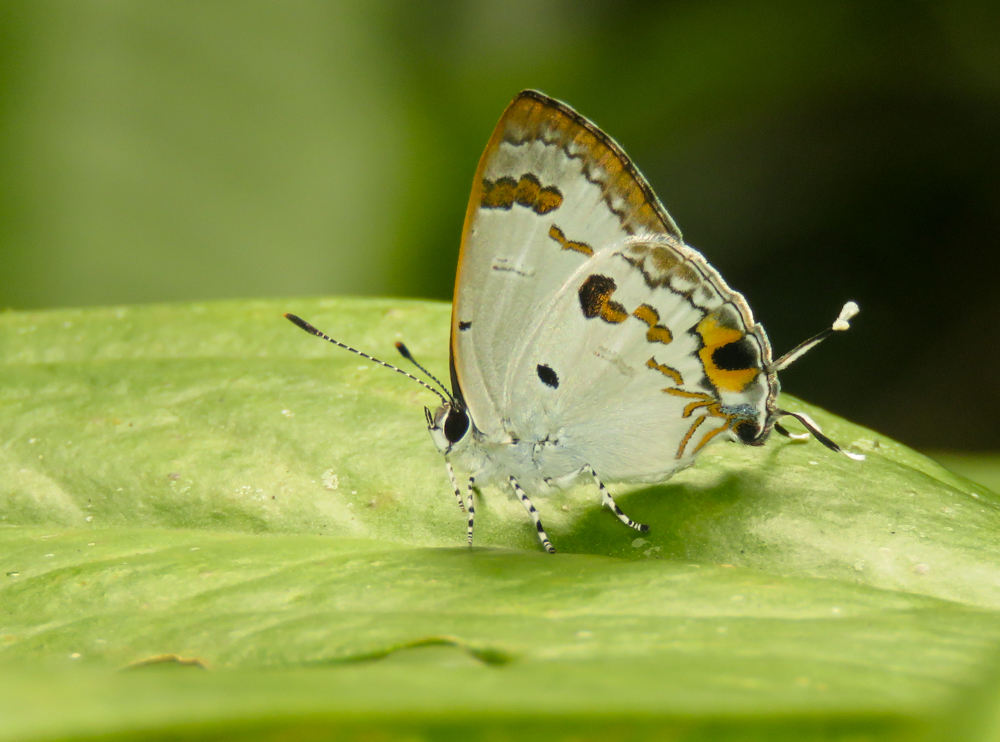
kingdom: Animalia
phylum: Arthropoda
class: Insecta
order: Lepidoptera
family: Lycaenidae
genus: Chliaria
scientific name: Chliaria othona
